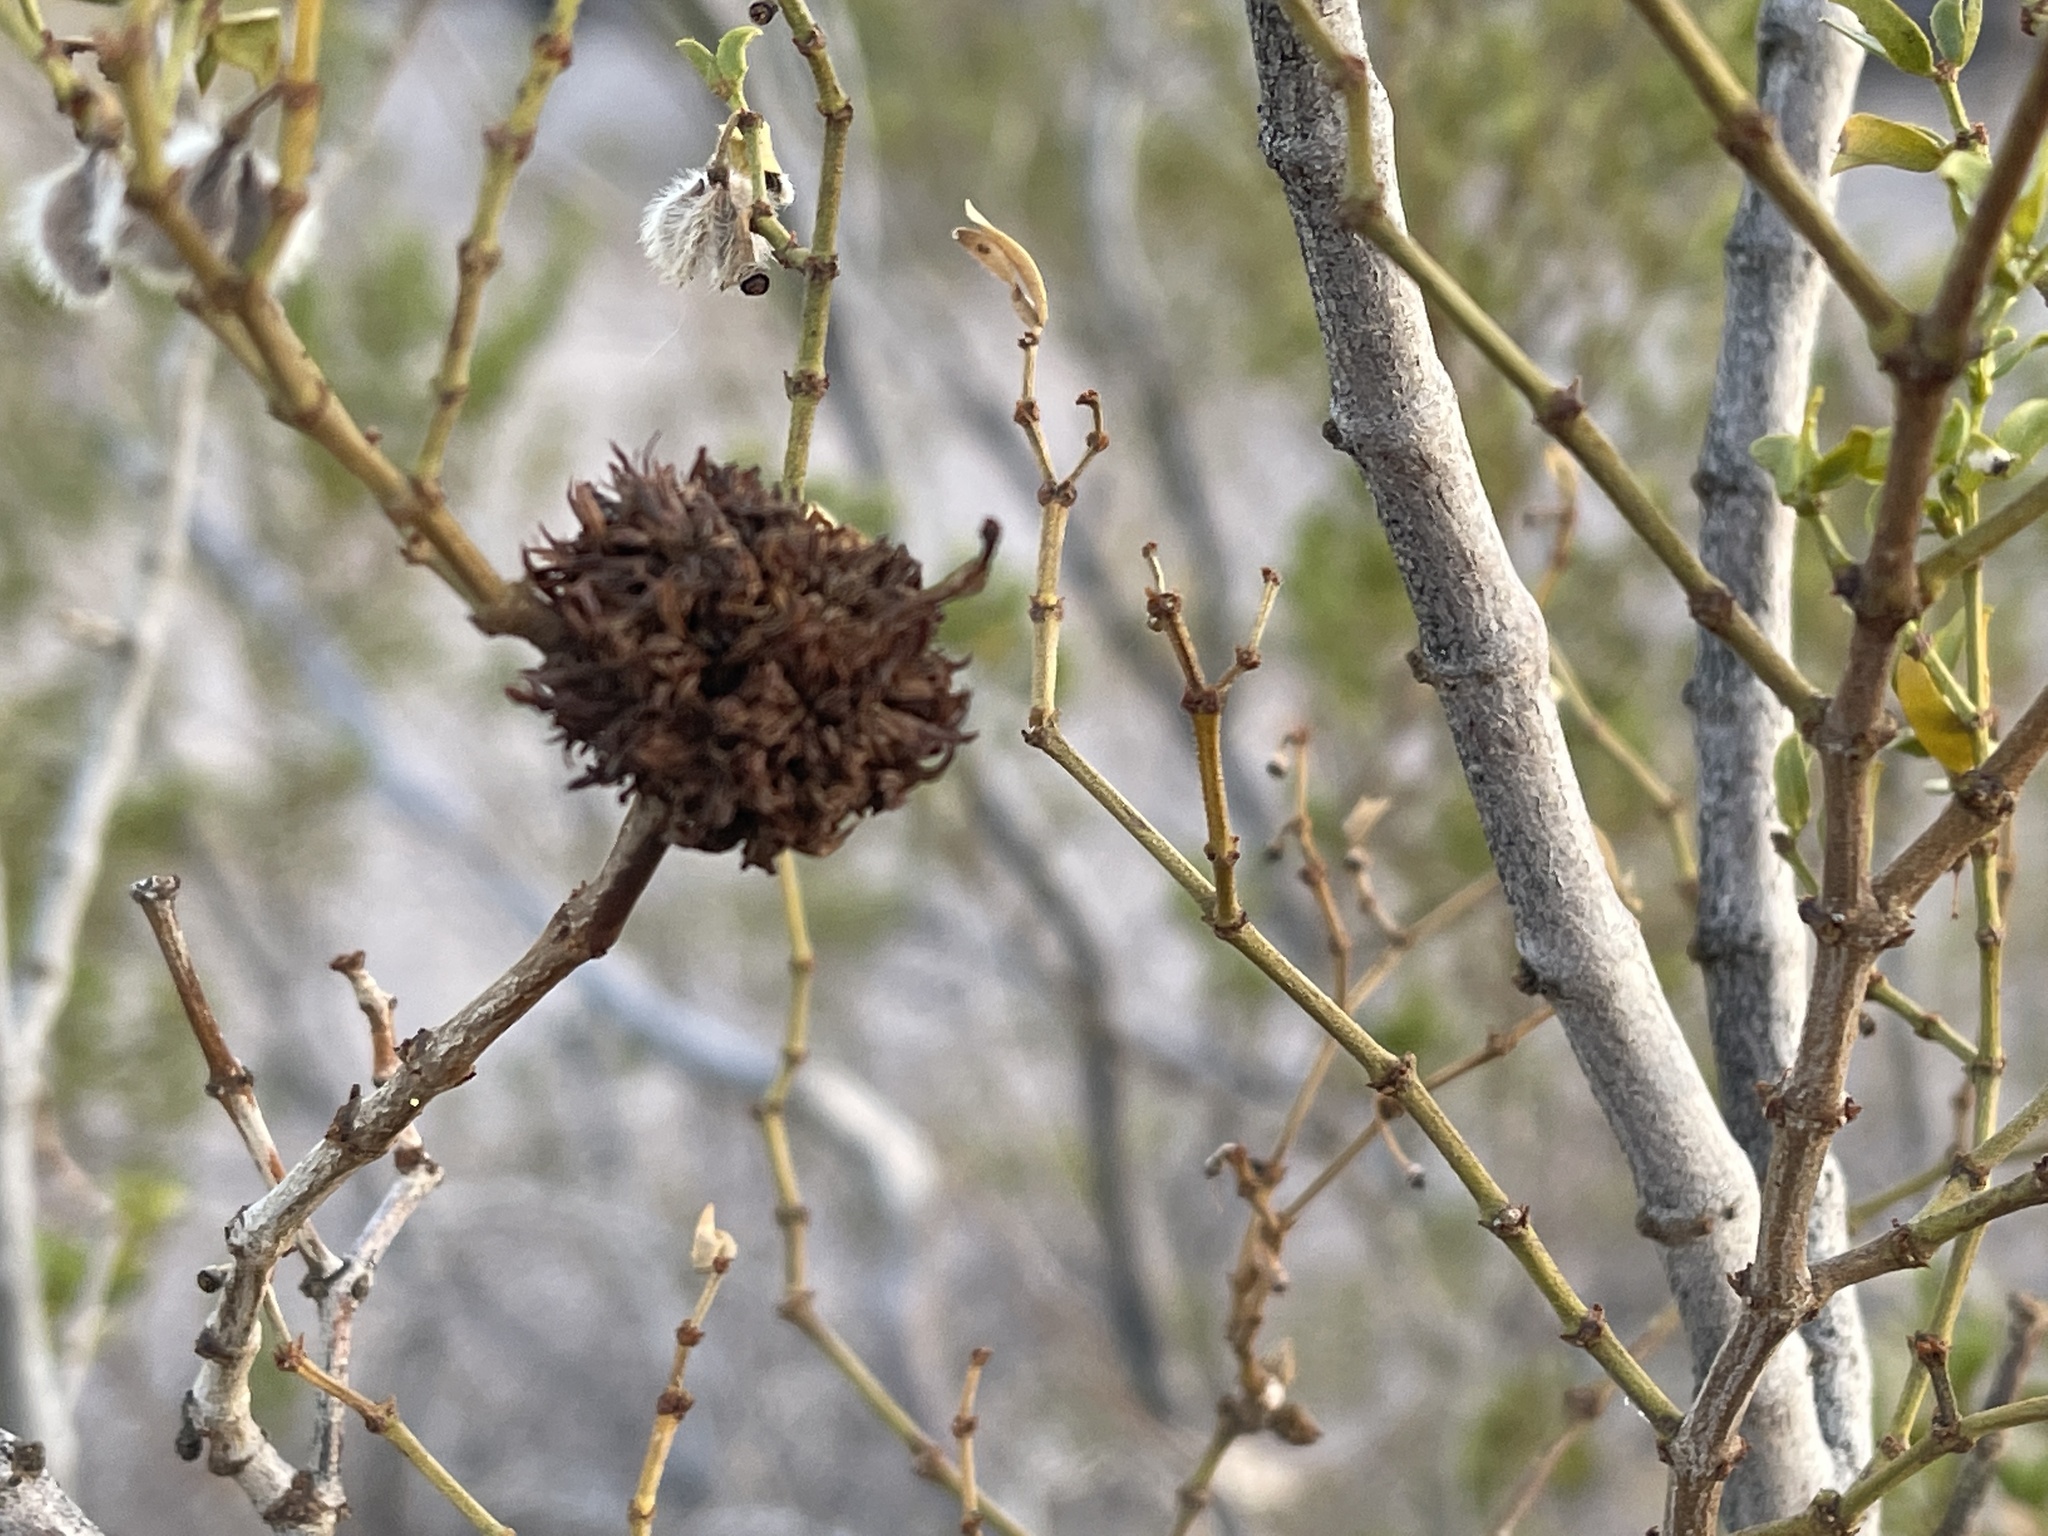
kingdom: Animalia
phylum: Arthropoda
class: Insecta
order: Diptera
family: Cecidomyiidae
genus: Asphondylia
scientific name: Asphondylia auripila
